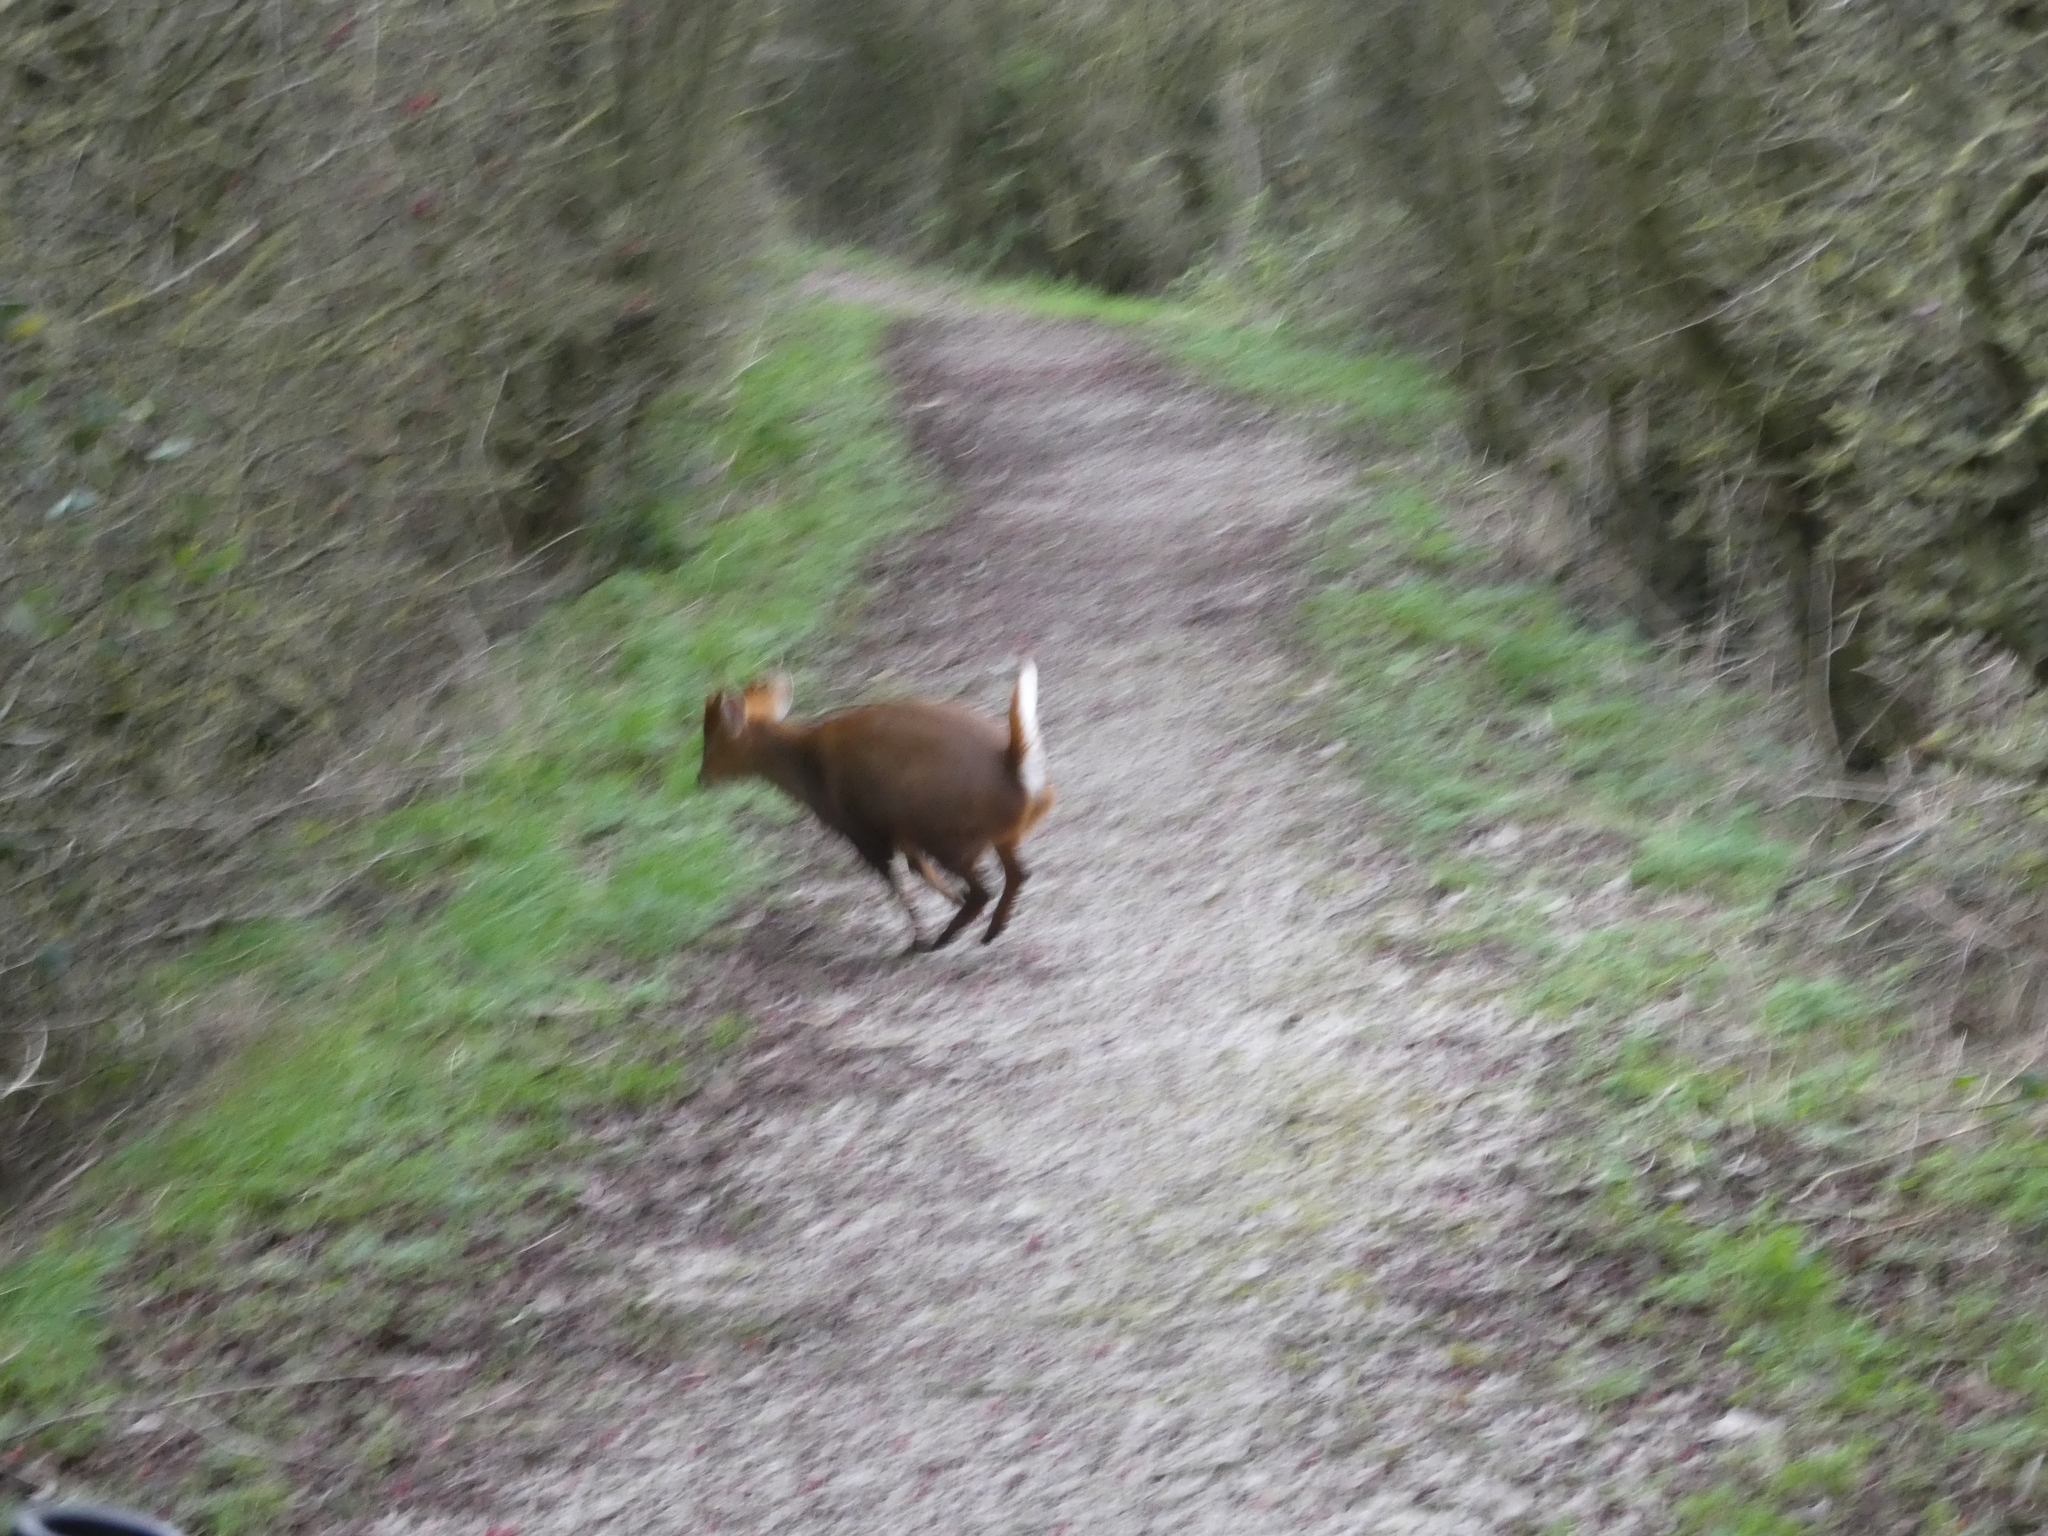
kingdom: Animalia
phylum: Chordata
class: Mammalia
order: Artiodactyla
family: Cervidae
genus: Muntiacus
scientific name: Muntiacus reevesi
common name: Reeves' muntjac
